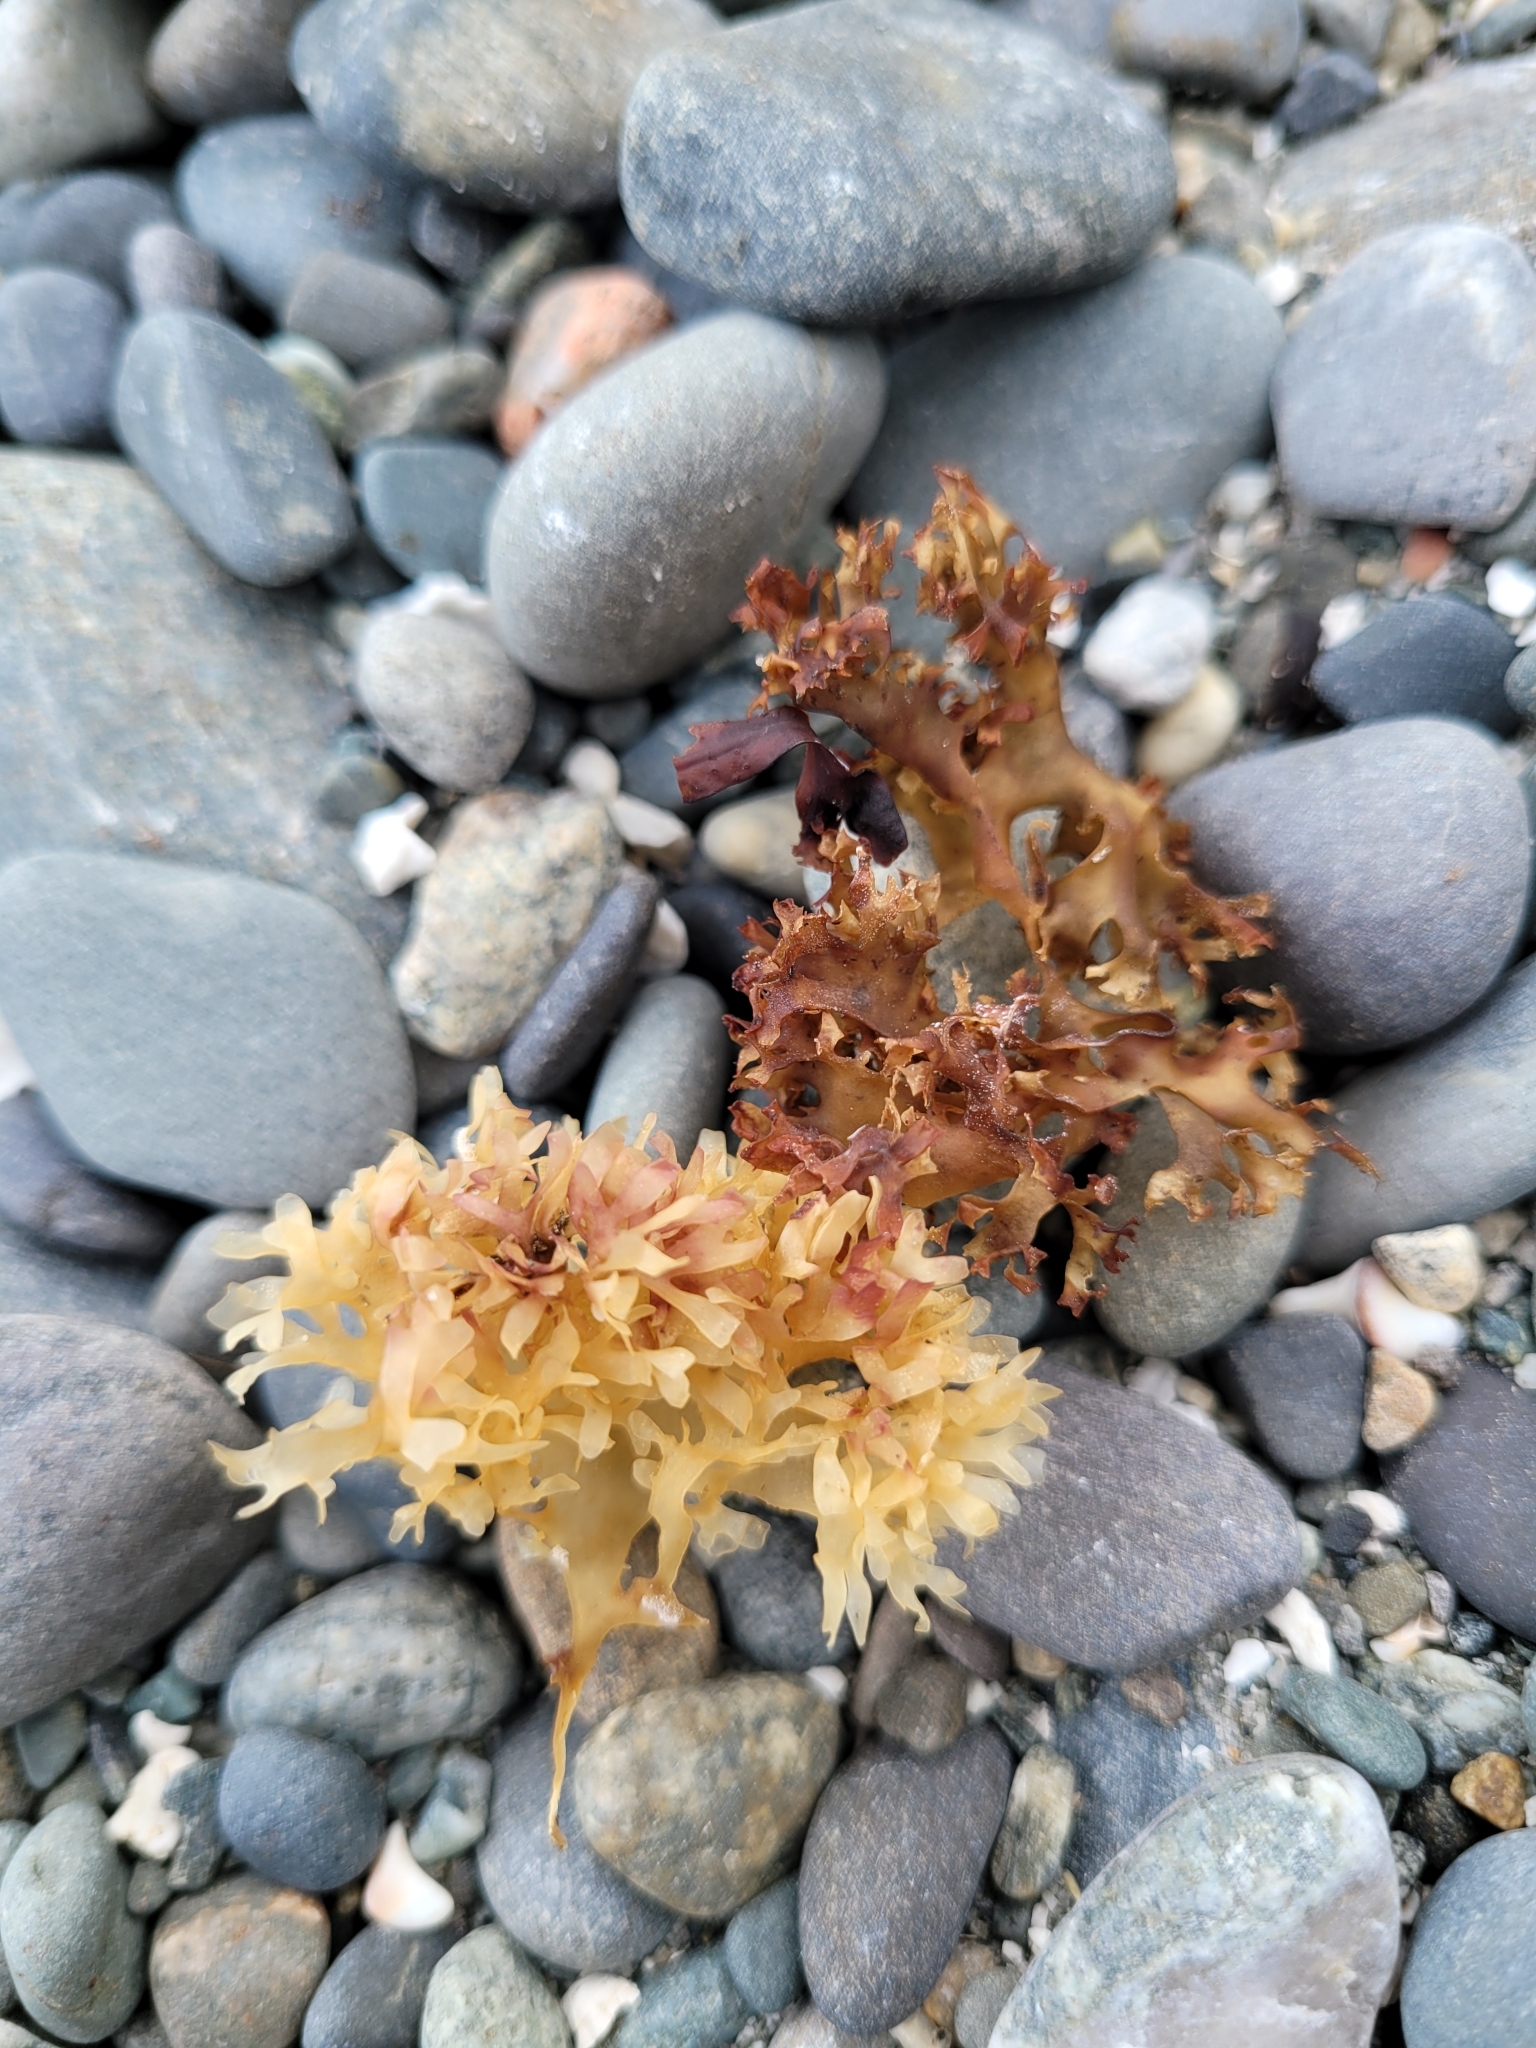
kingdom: Plantae
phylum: Rhodophyta
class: Florideophyceae
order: Gigartinales
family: Gigartinaceae
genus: Chondrus
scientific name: Chondrus crispus
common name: Carrageen
